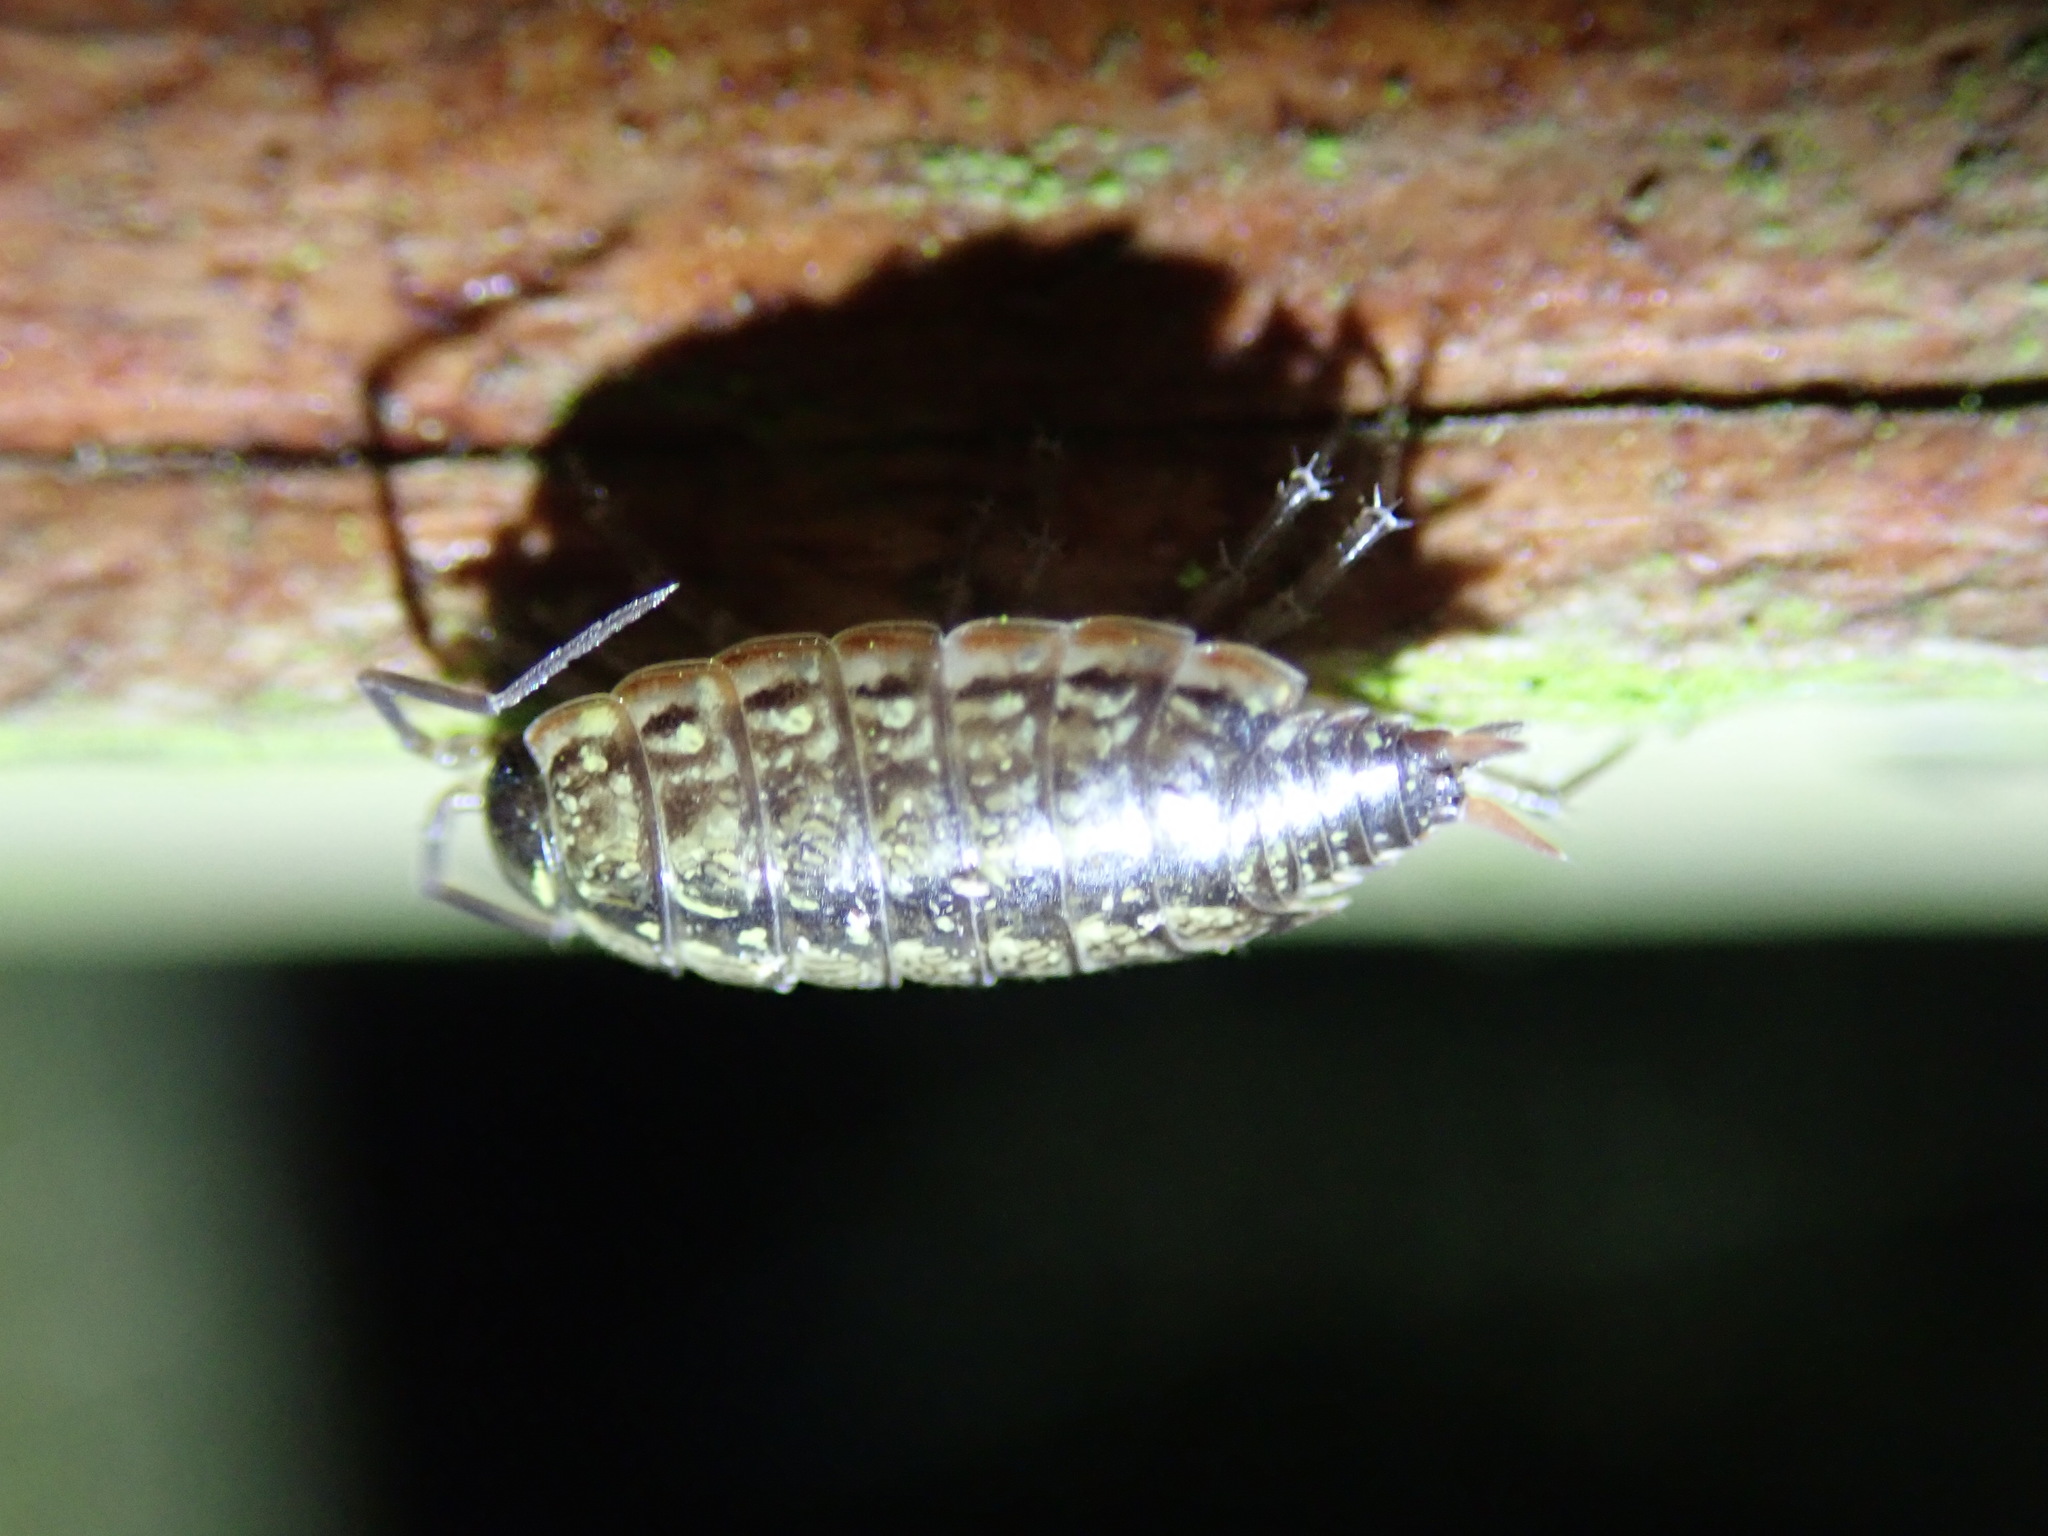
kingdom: Animalia
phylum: Arthropoda
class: Malacostraca
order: Isopoda
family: Philosciidae
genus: Philoscia
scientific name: Philoscia muscorum
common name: Common striped woodlouse
